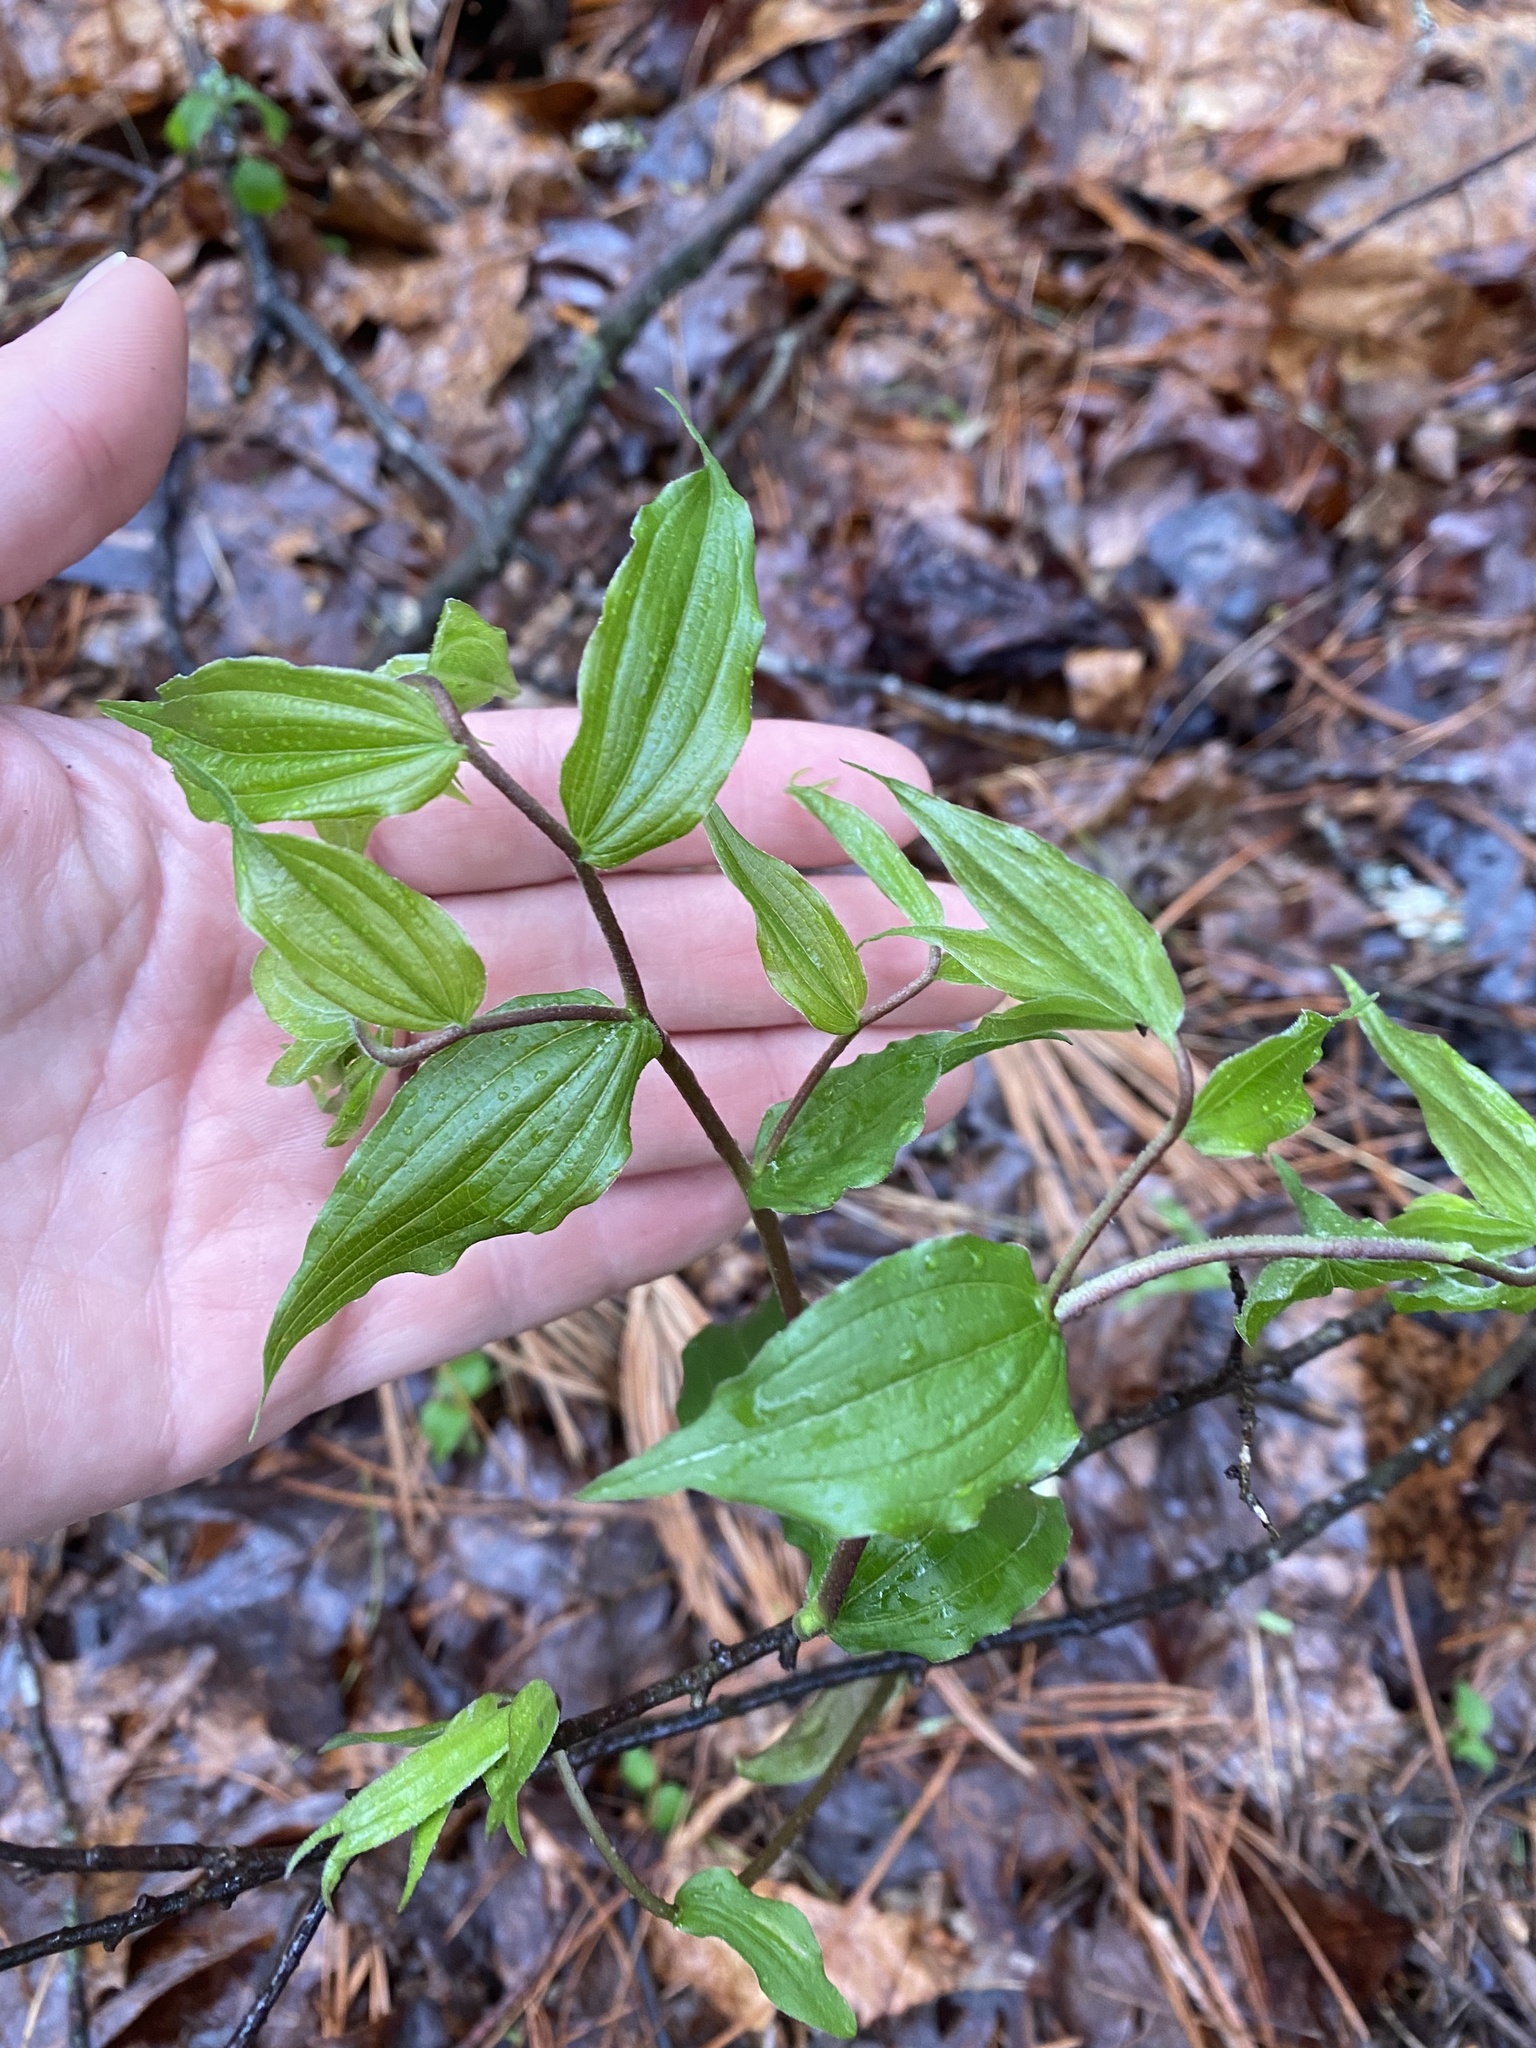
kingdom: Plantae
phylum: Tracheophyta
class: Liliopsida
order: Liliales
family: Liliaceae
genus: Prosartes
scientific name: Prosartes lanuginosa
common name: Hairy mandarin
